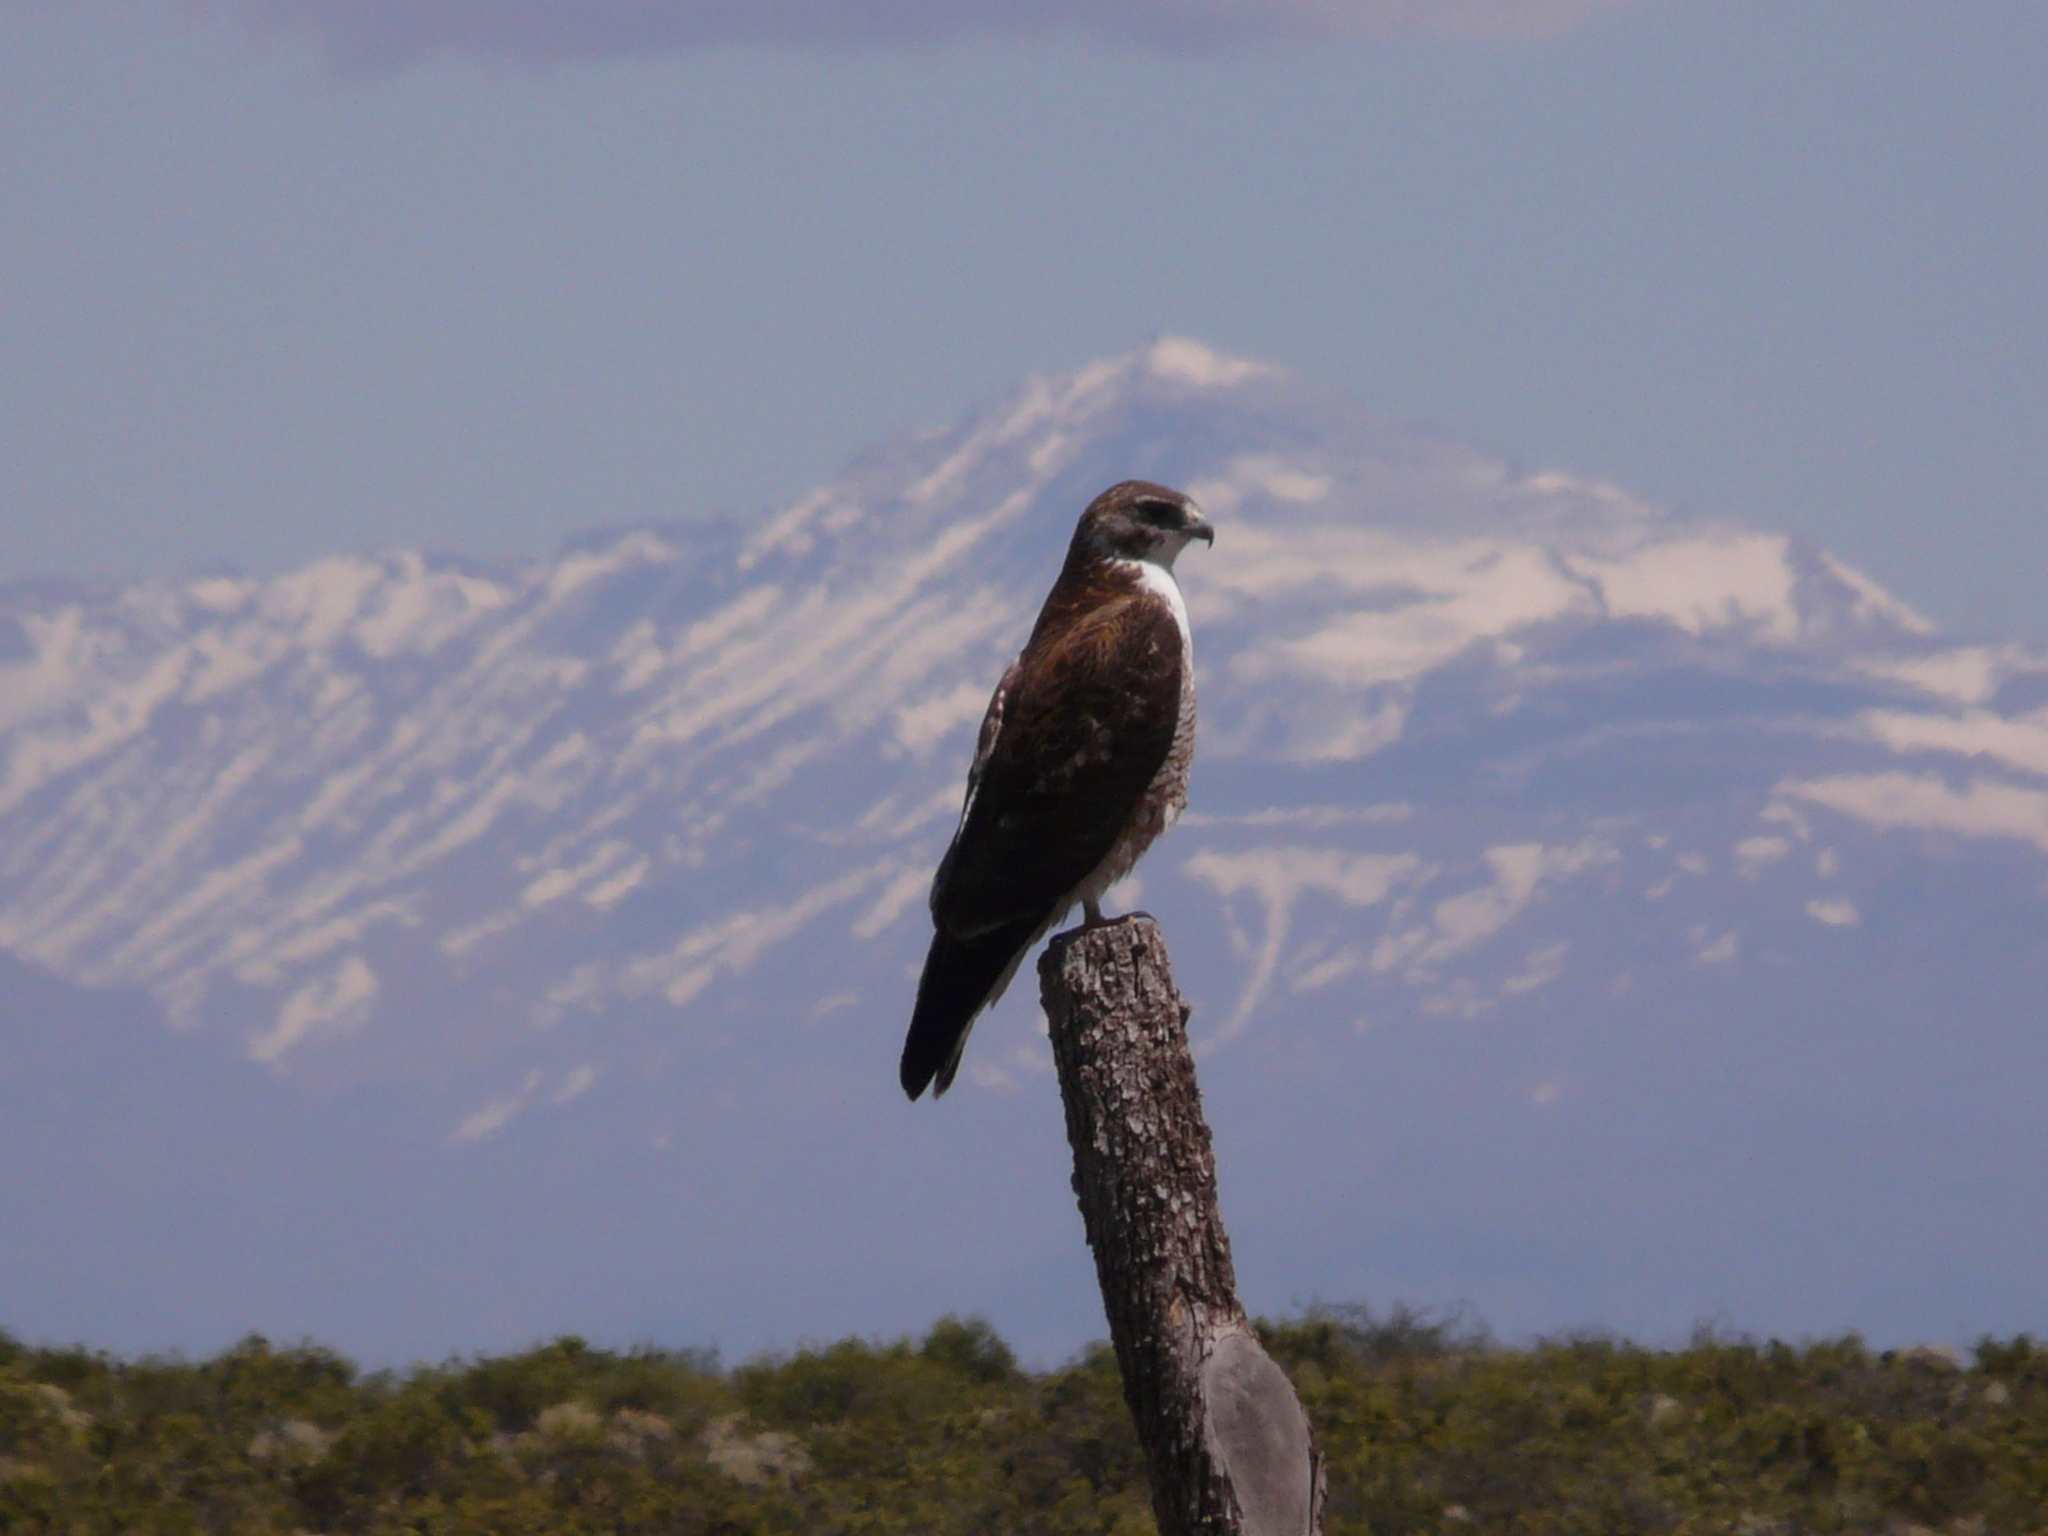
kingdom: Animalia
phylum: Chordata
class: Aves
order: Accipitriformes
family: Accipitridae
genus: Buteo
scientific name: Buteo polyosoma
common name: Variable hawk
